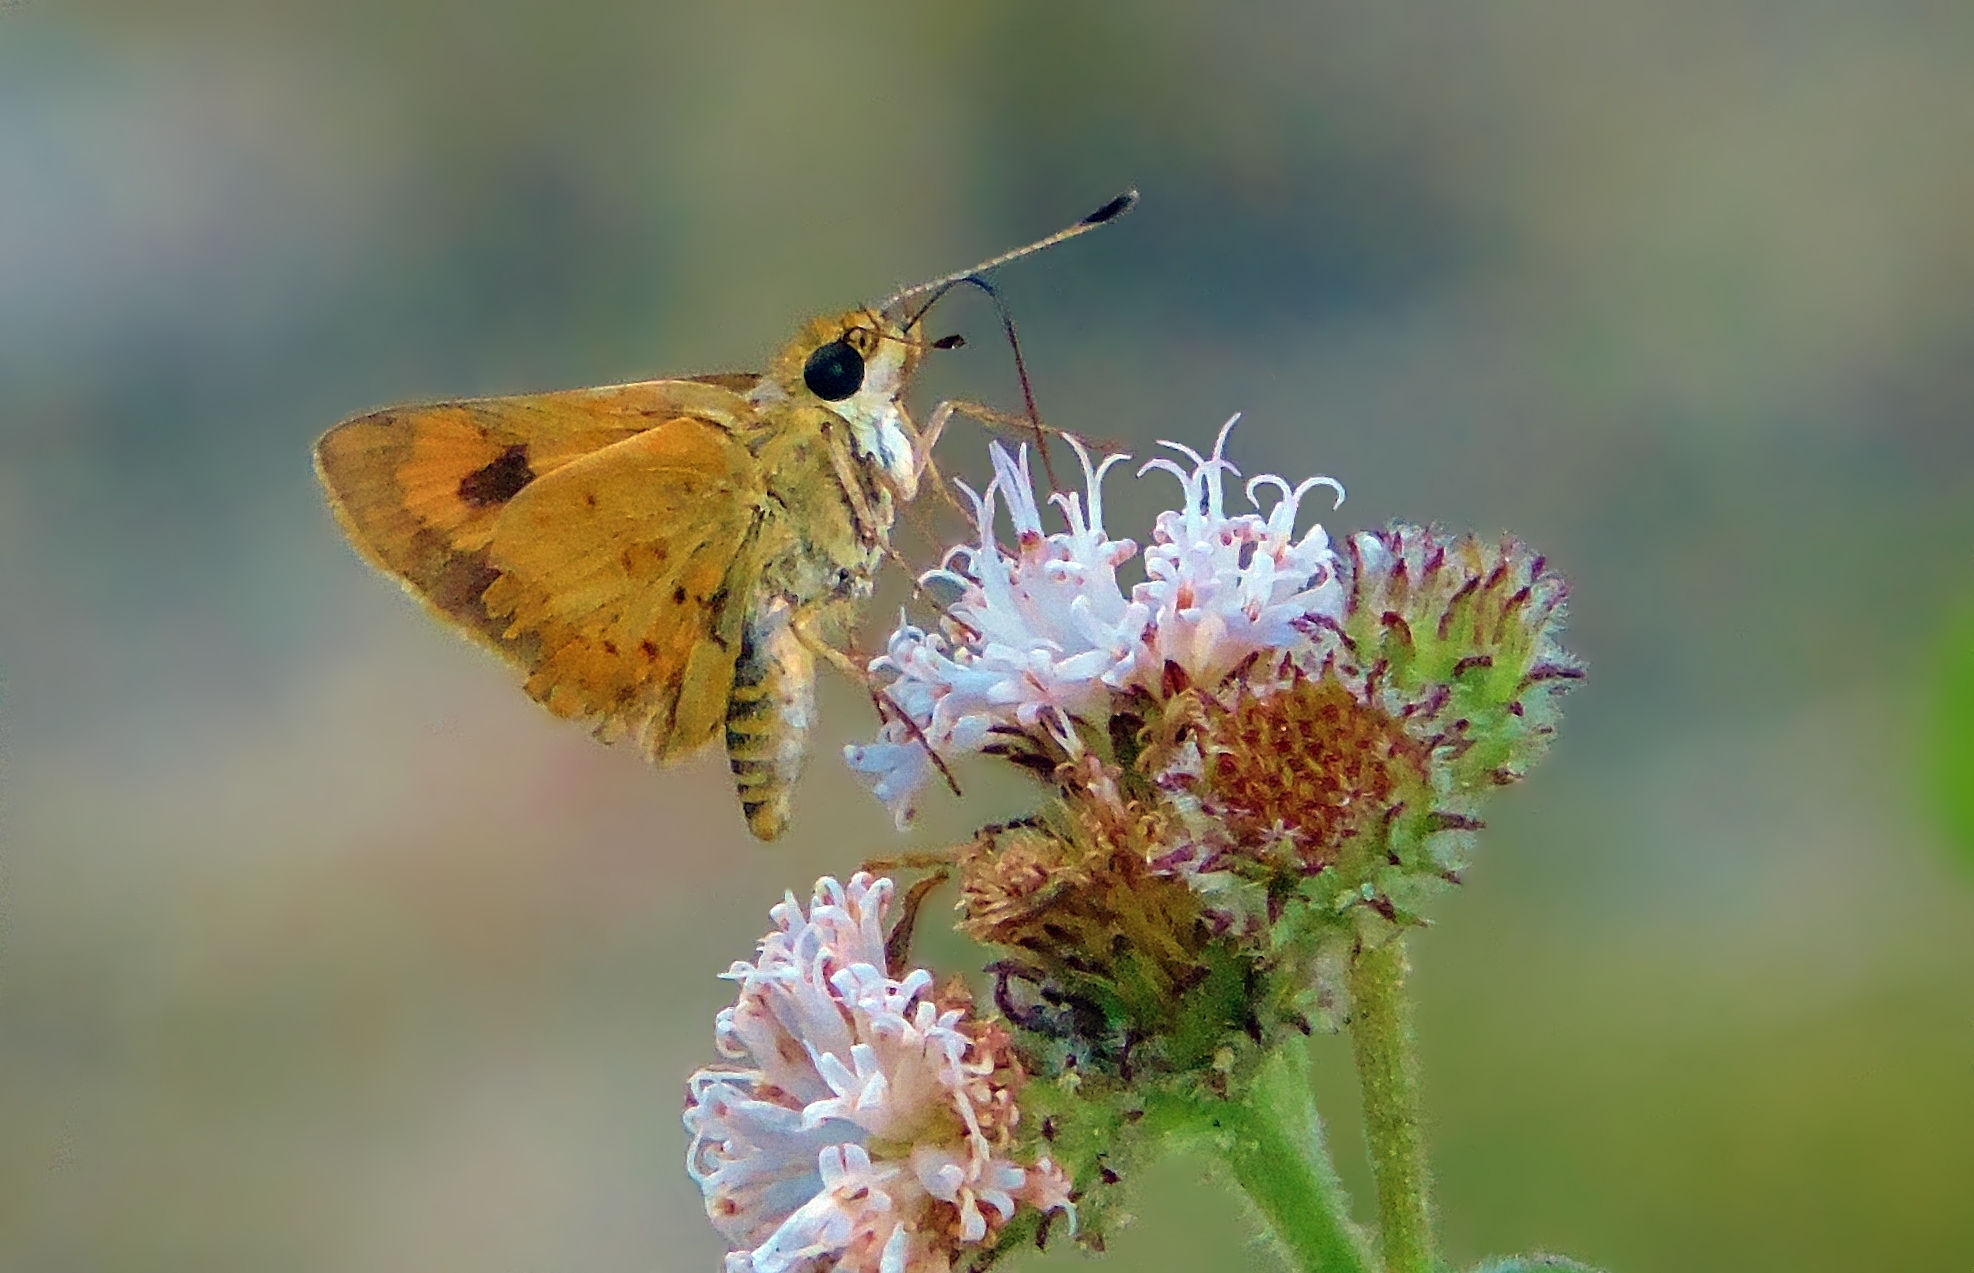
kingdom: Animalia
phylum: Arthropoda
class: Insecta
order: Lepidoptera
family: Hesperiidae
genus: Acada
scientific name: Acada biseriatus
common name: Axehead orange
